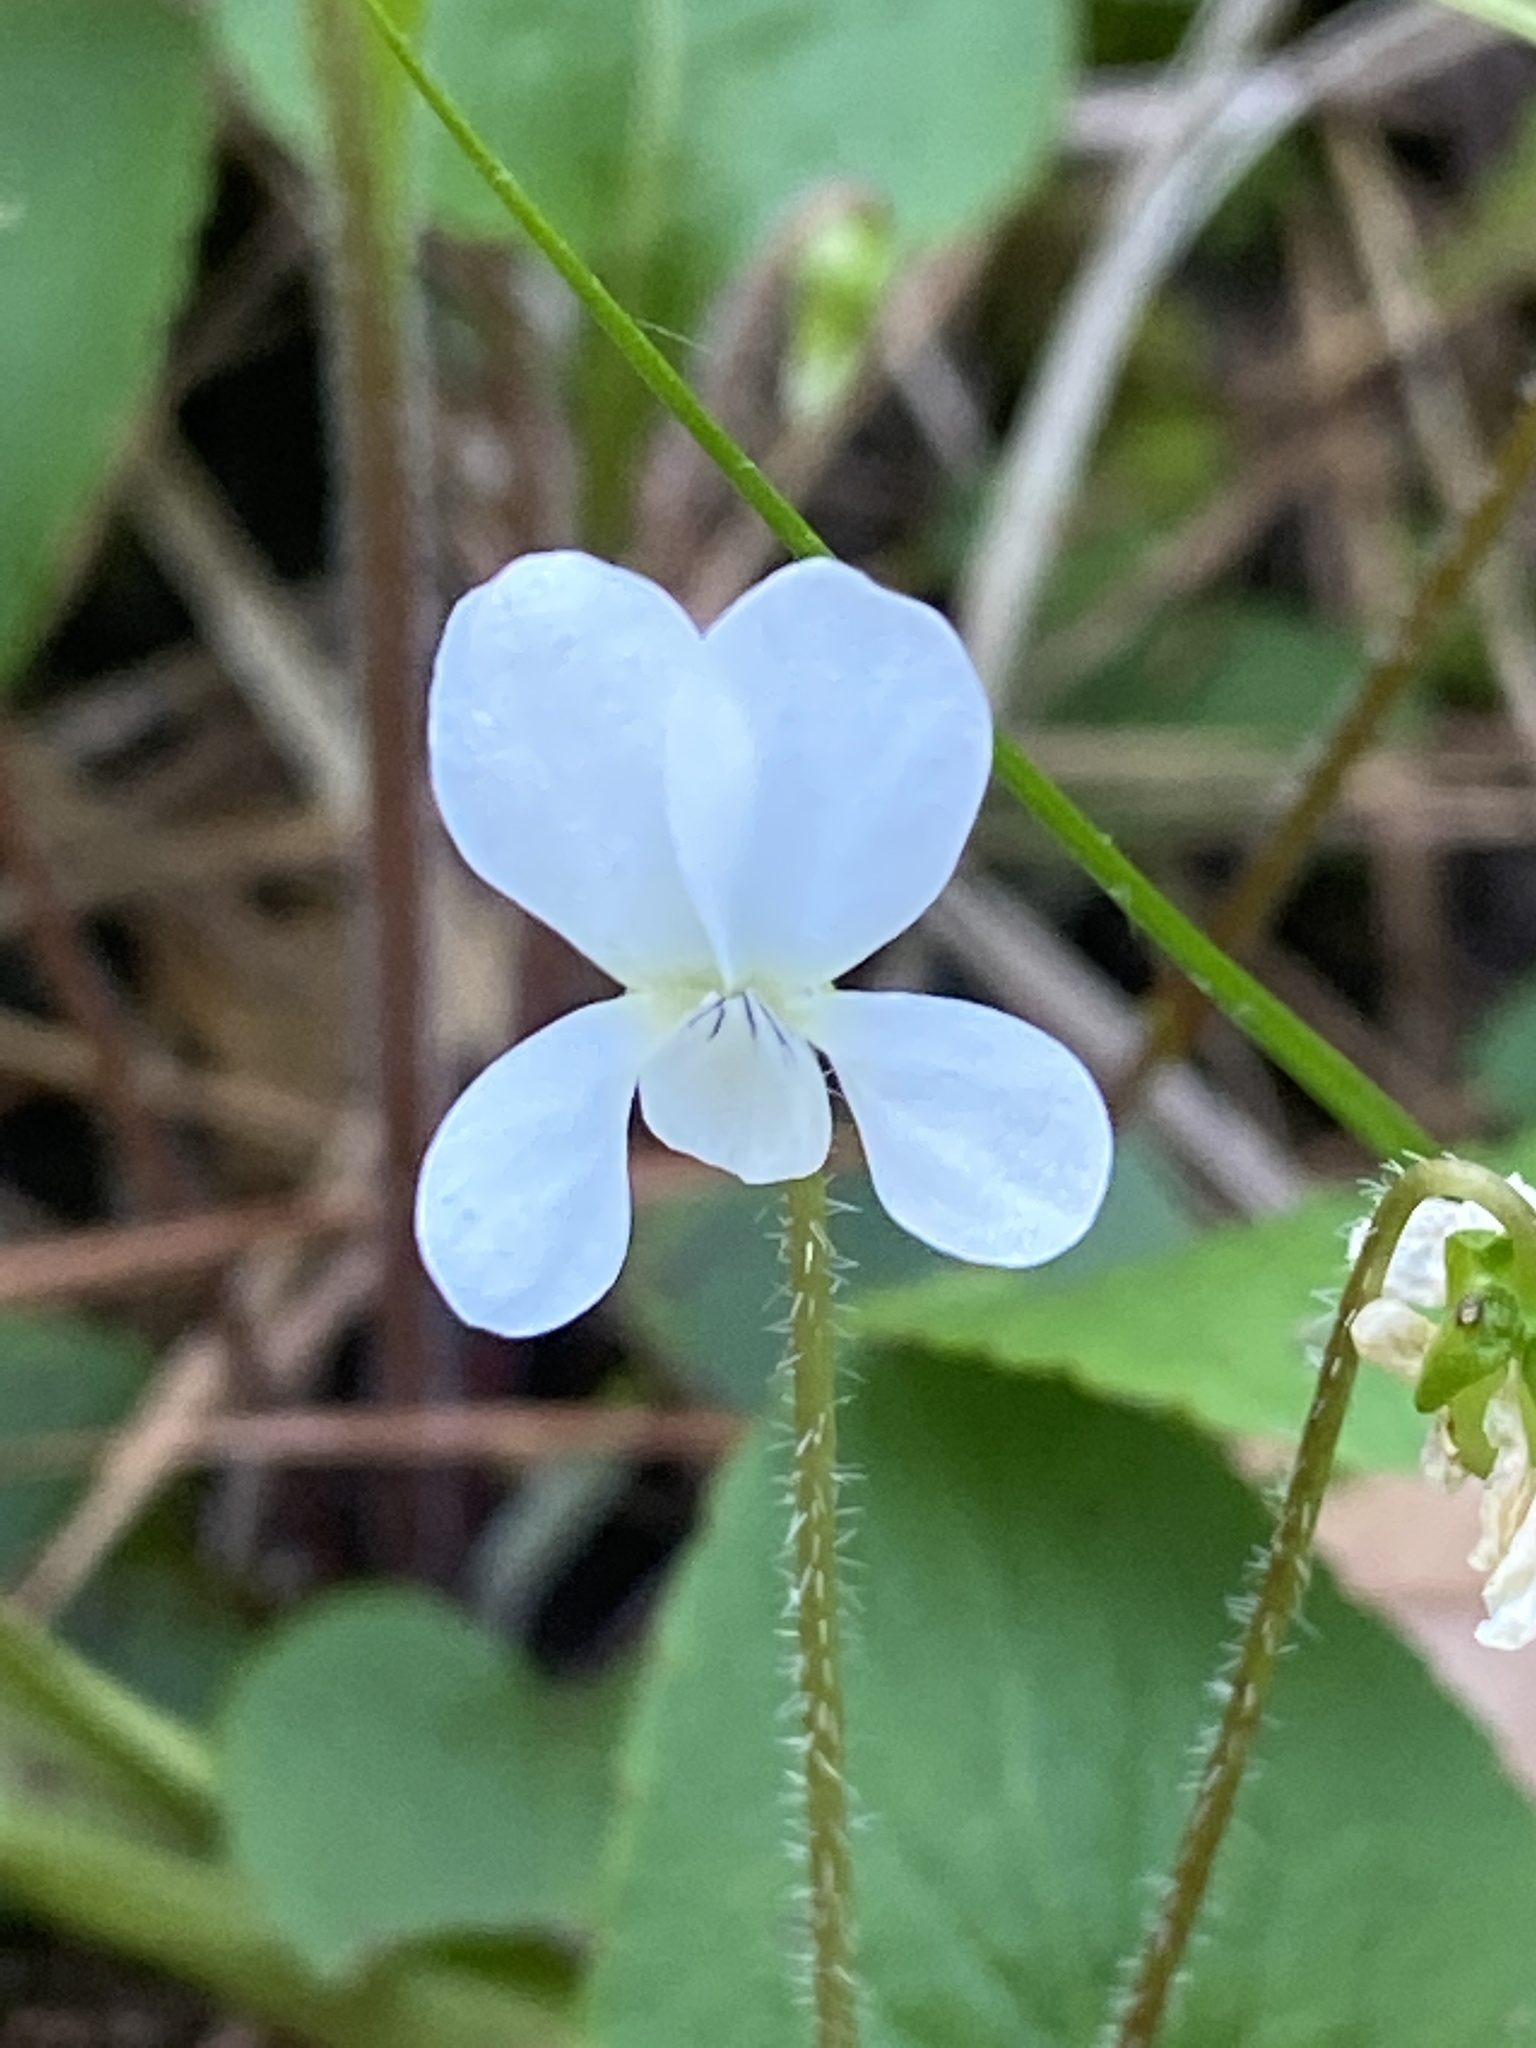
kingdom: Plantae
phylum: Tracheophyta
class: Magnoliopsida
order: Malpighiales
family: Violaceae
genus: Viola
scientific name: Viola primulifolia
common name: Primrose-leaf violet
